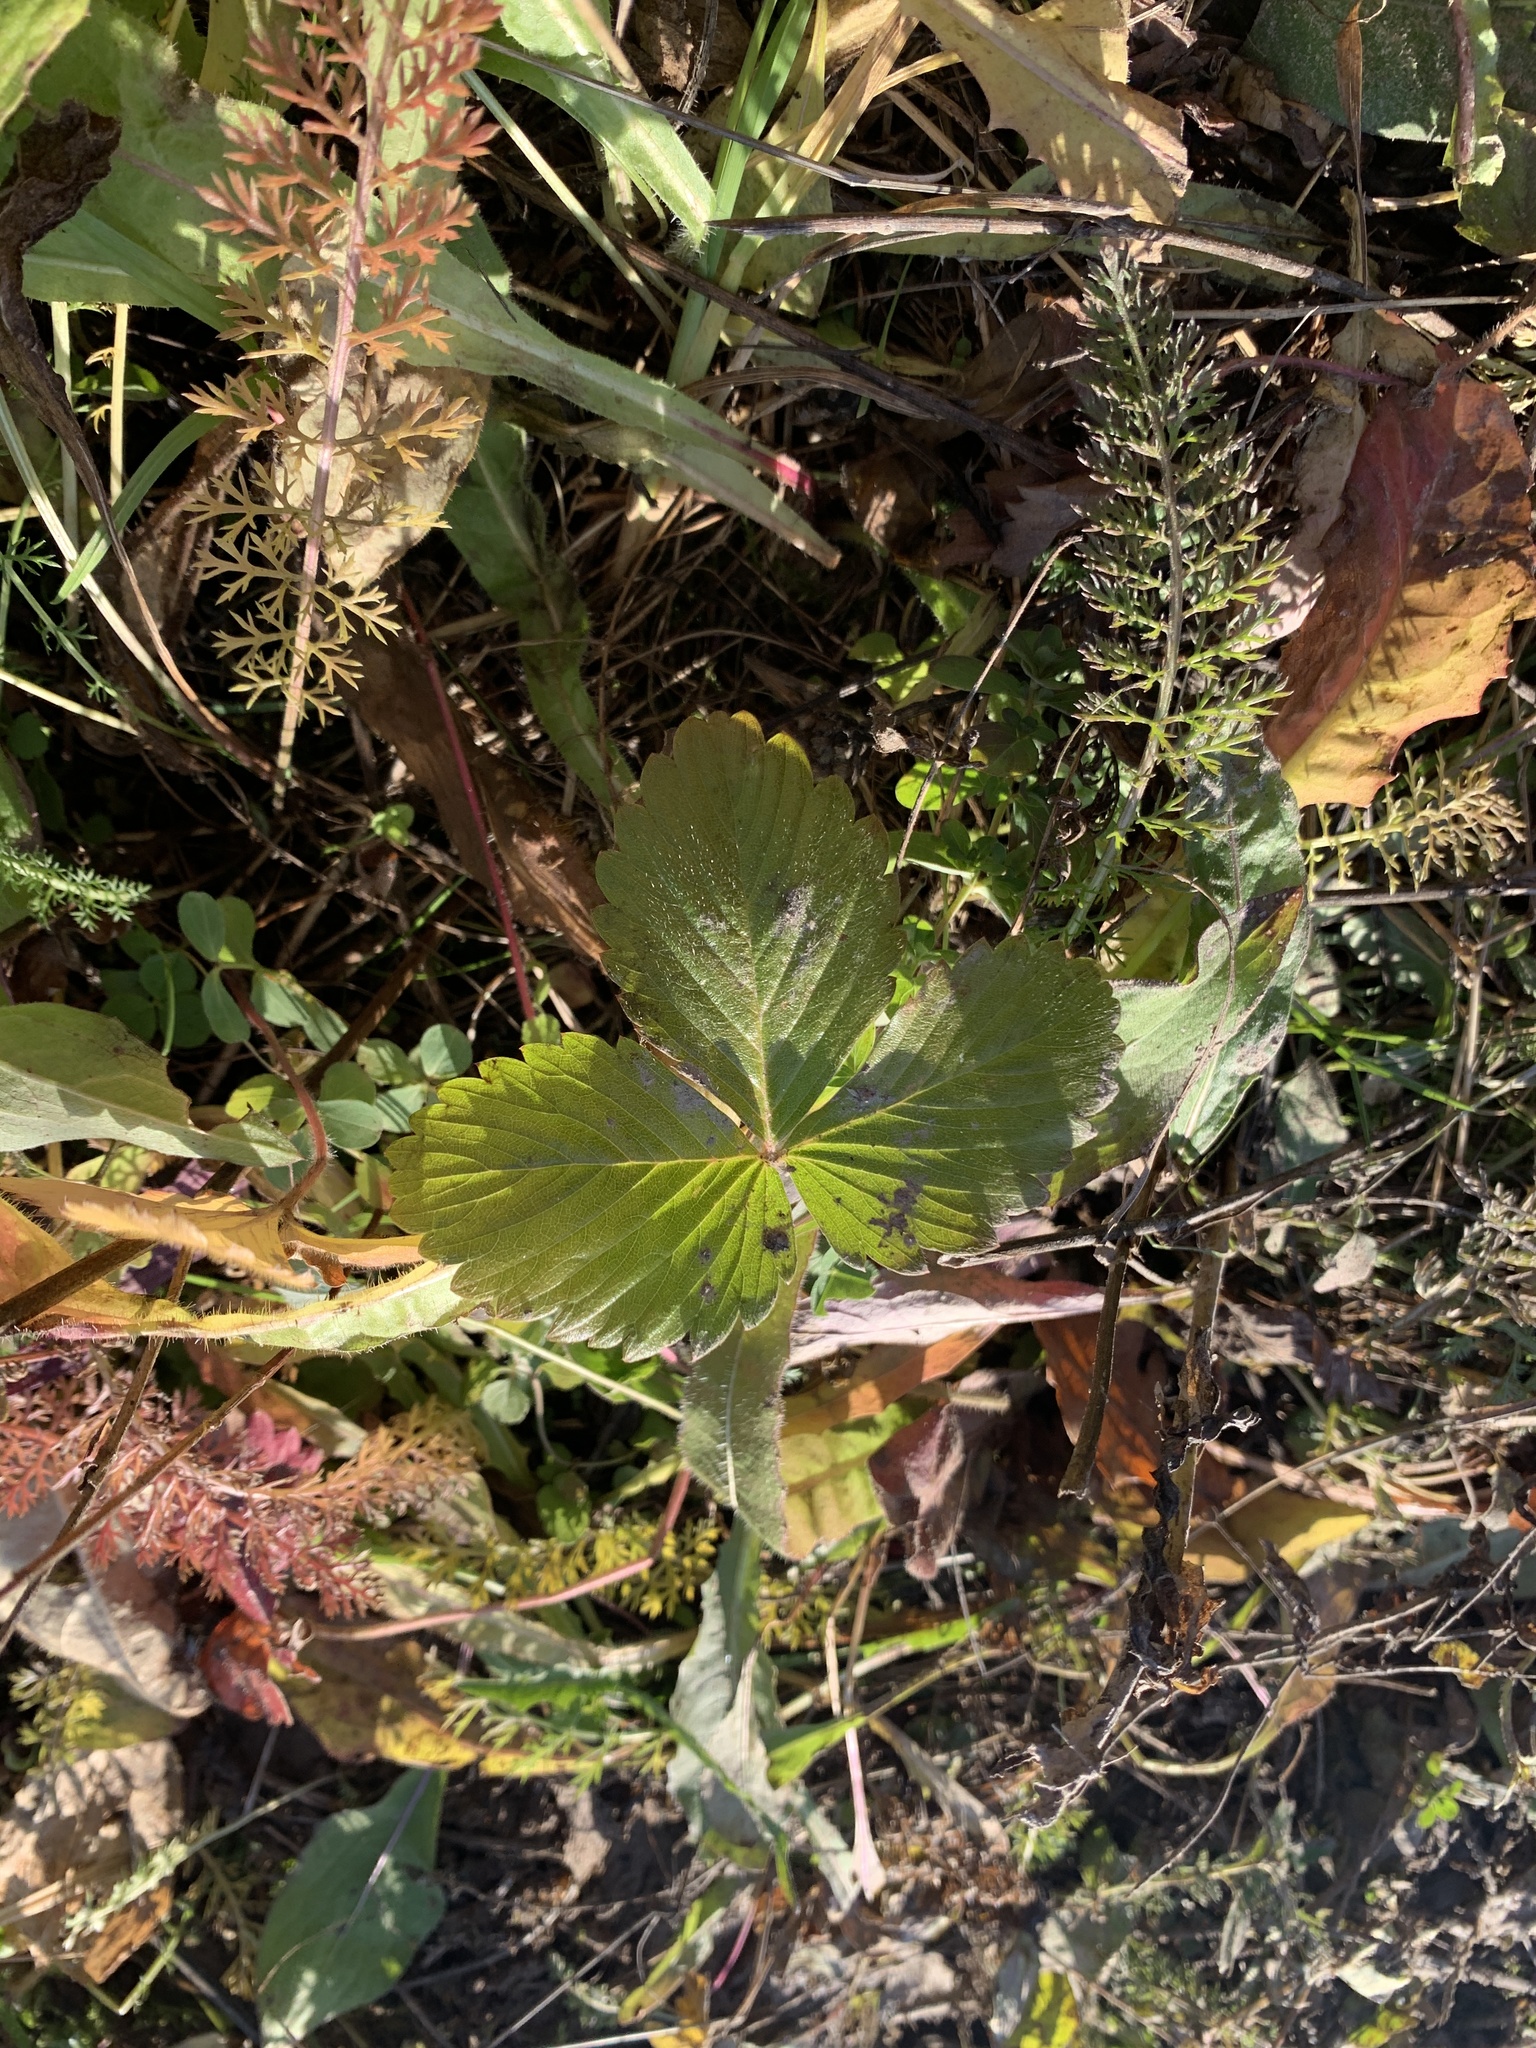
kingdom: Plantae
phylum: Tracheophyta
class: Magnoliopsida
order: Rosales
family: Rosaceae
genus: Fragaria
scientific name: Fragaria vesca
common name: Wild strawberry
